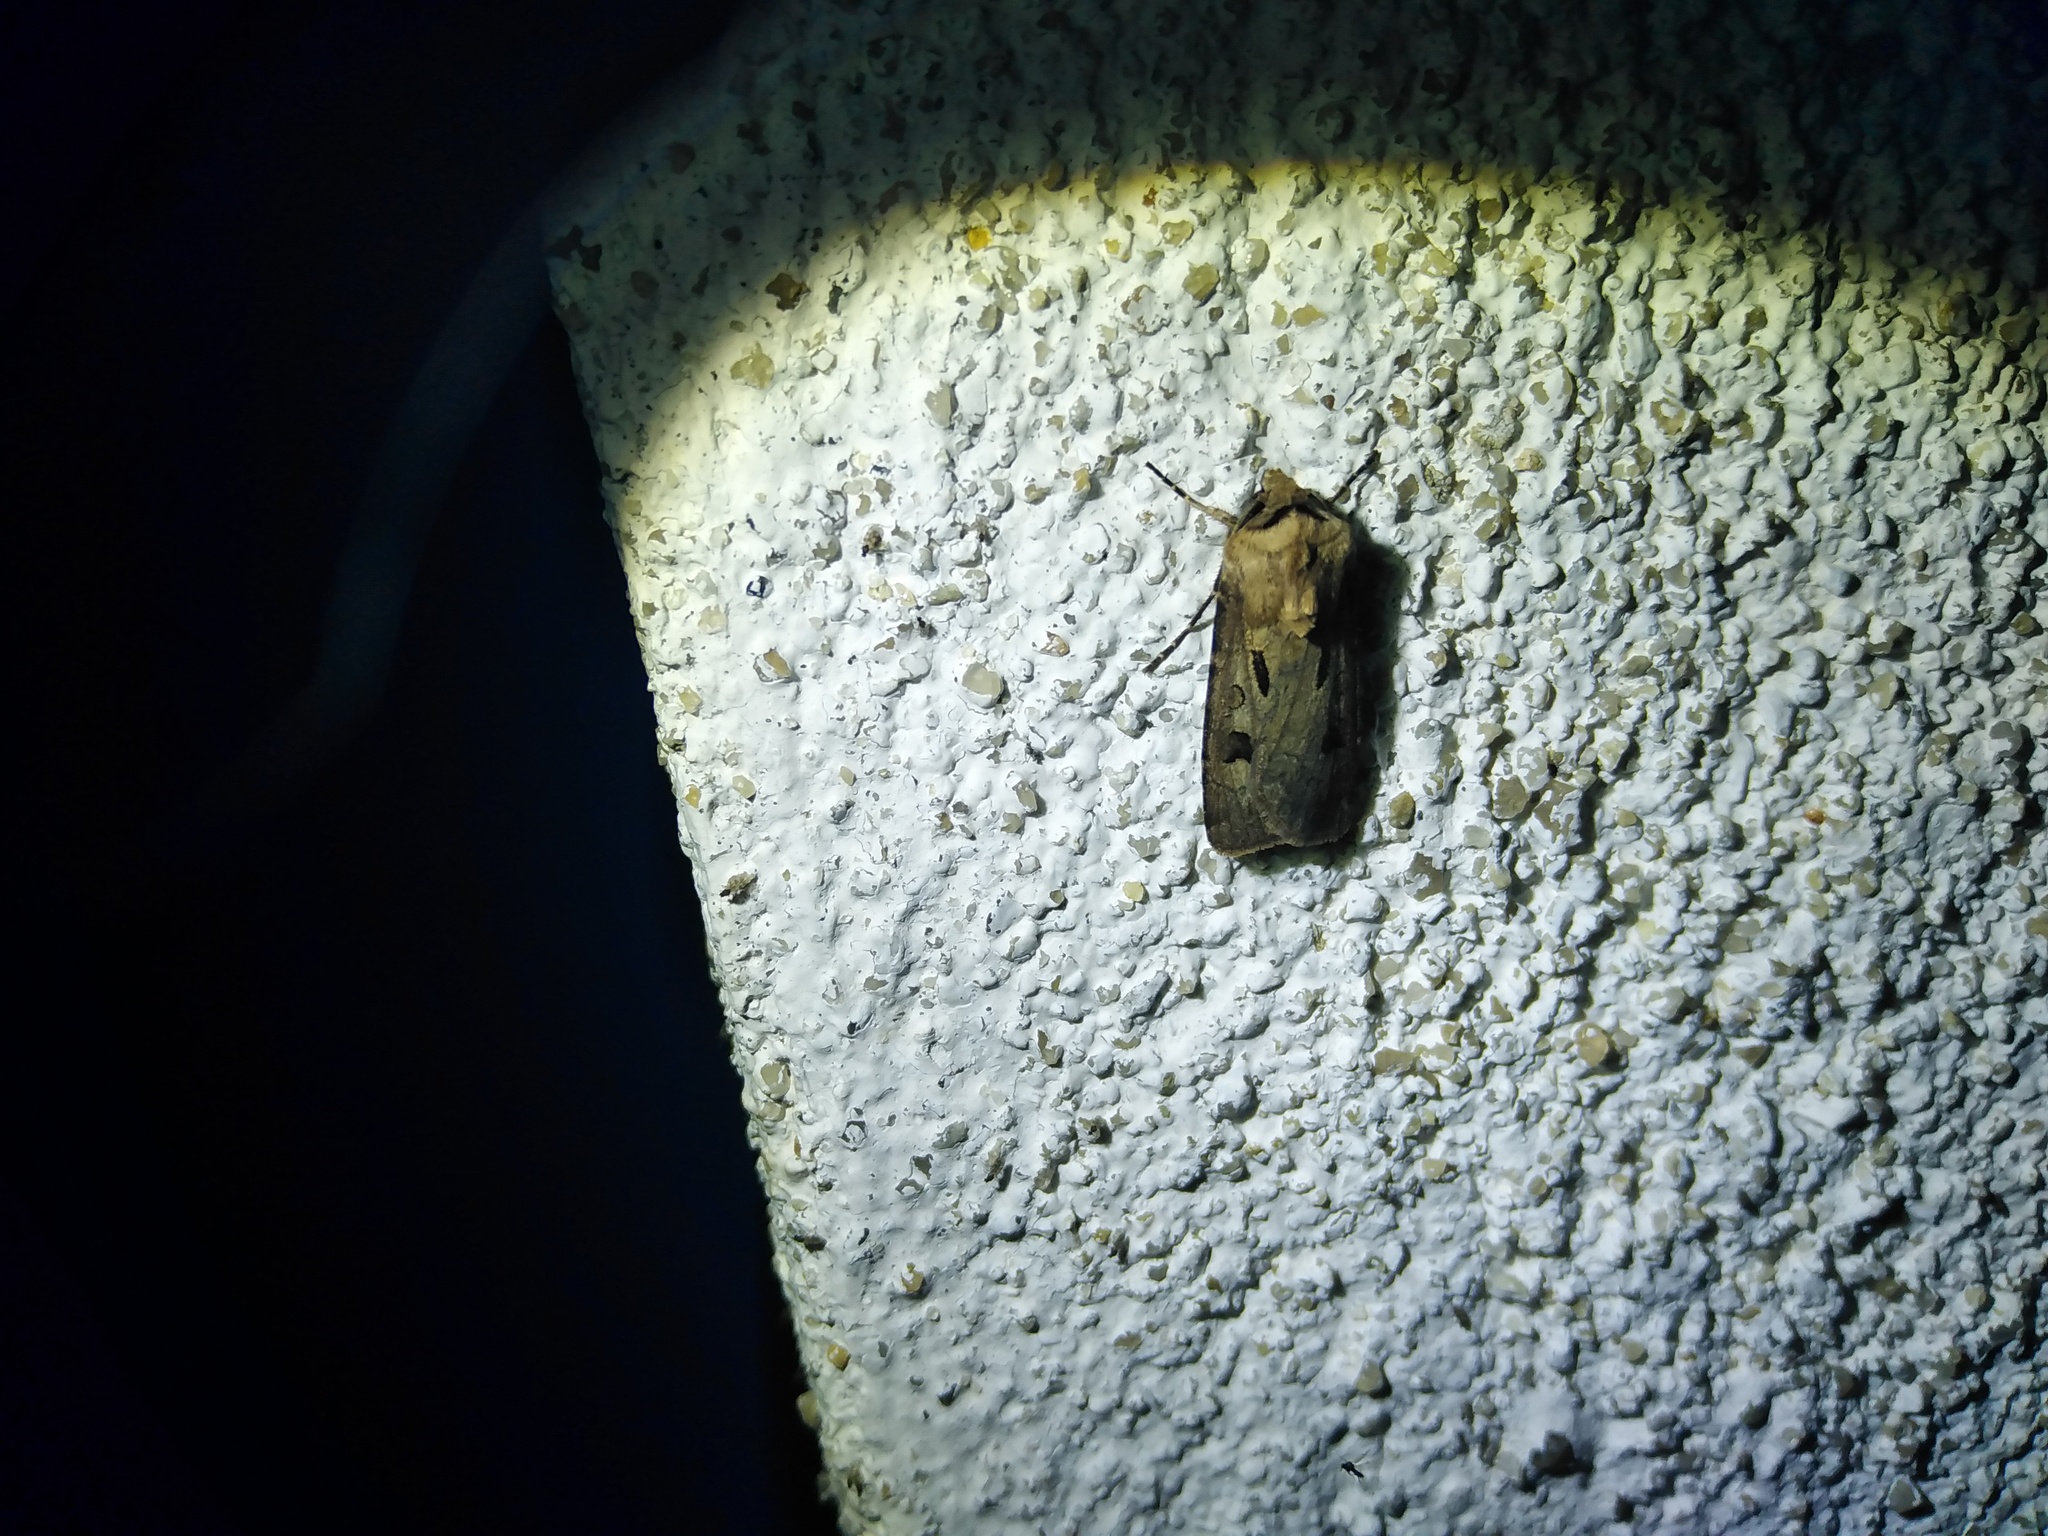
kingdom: Animalia
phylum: Arthropoda
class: Insecta
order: Lepidoptera
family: Noctuidae
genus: Agrotis
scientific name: Agrotis exclamationis
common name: Heart and dart
